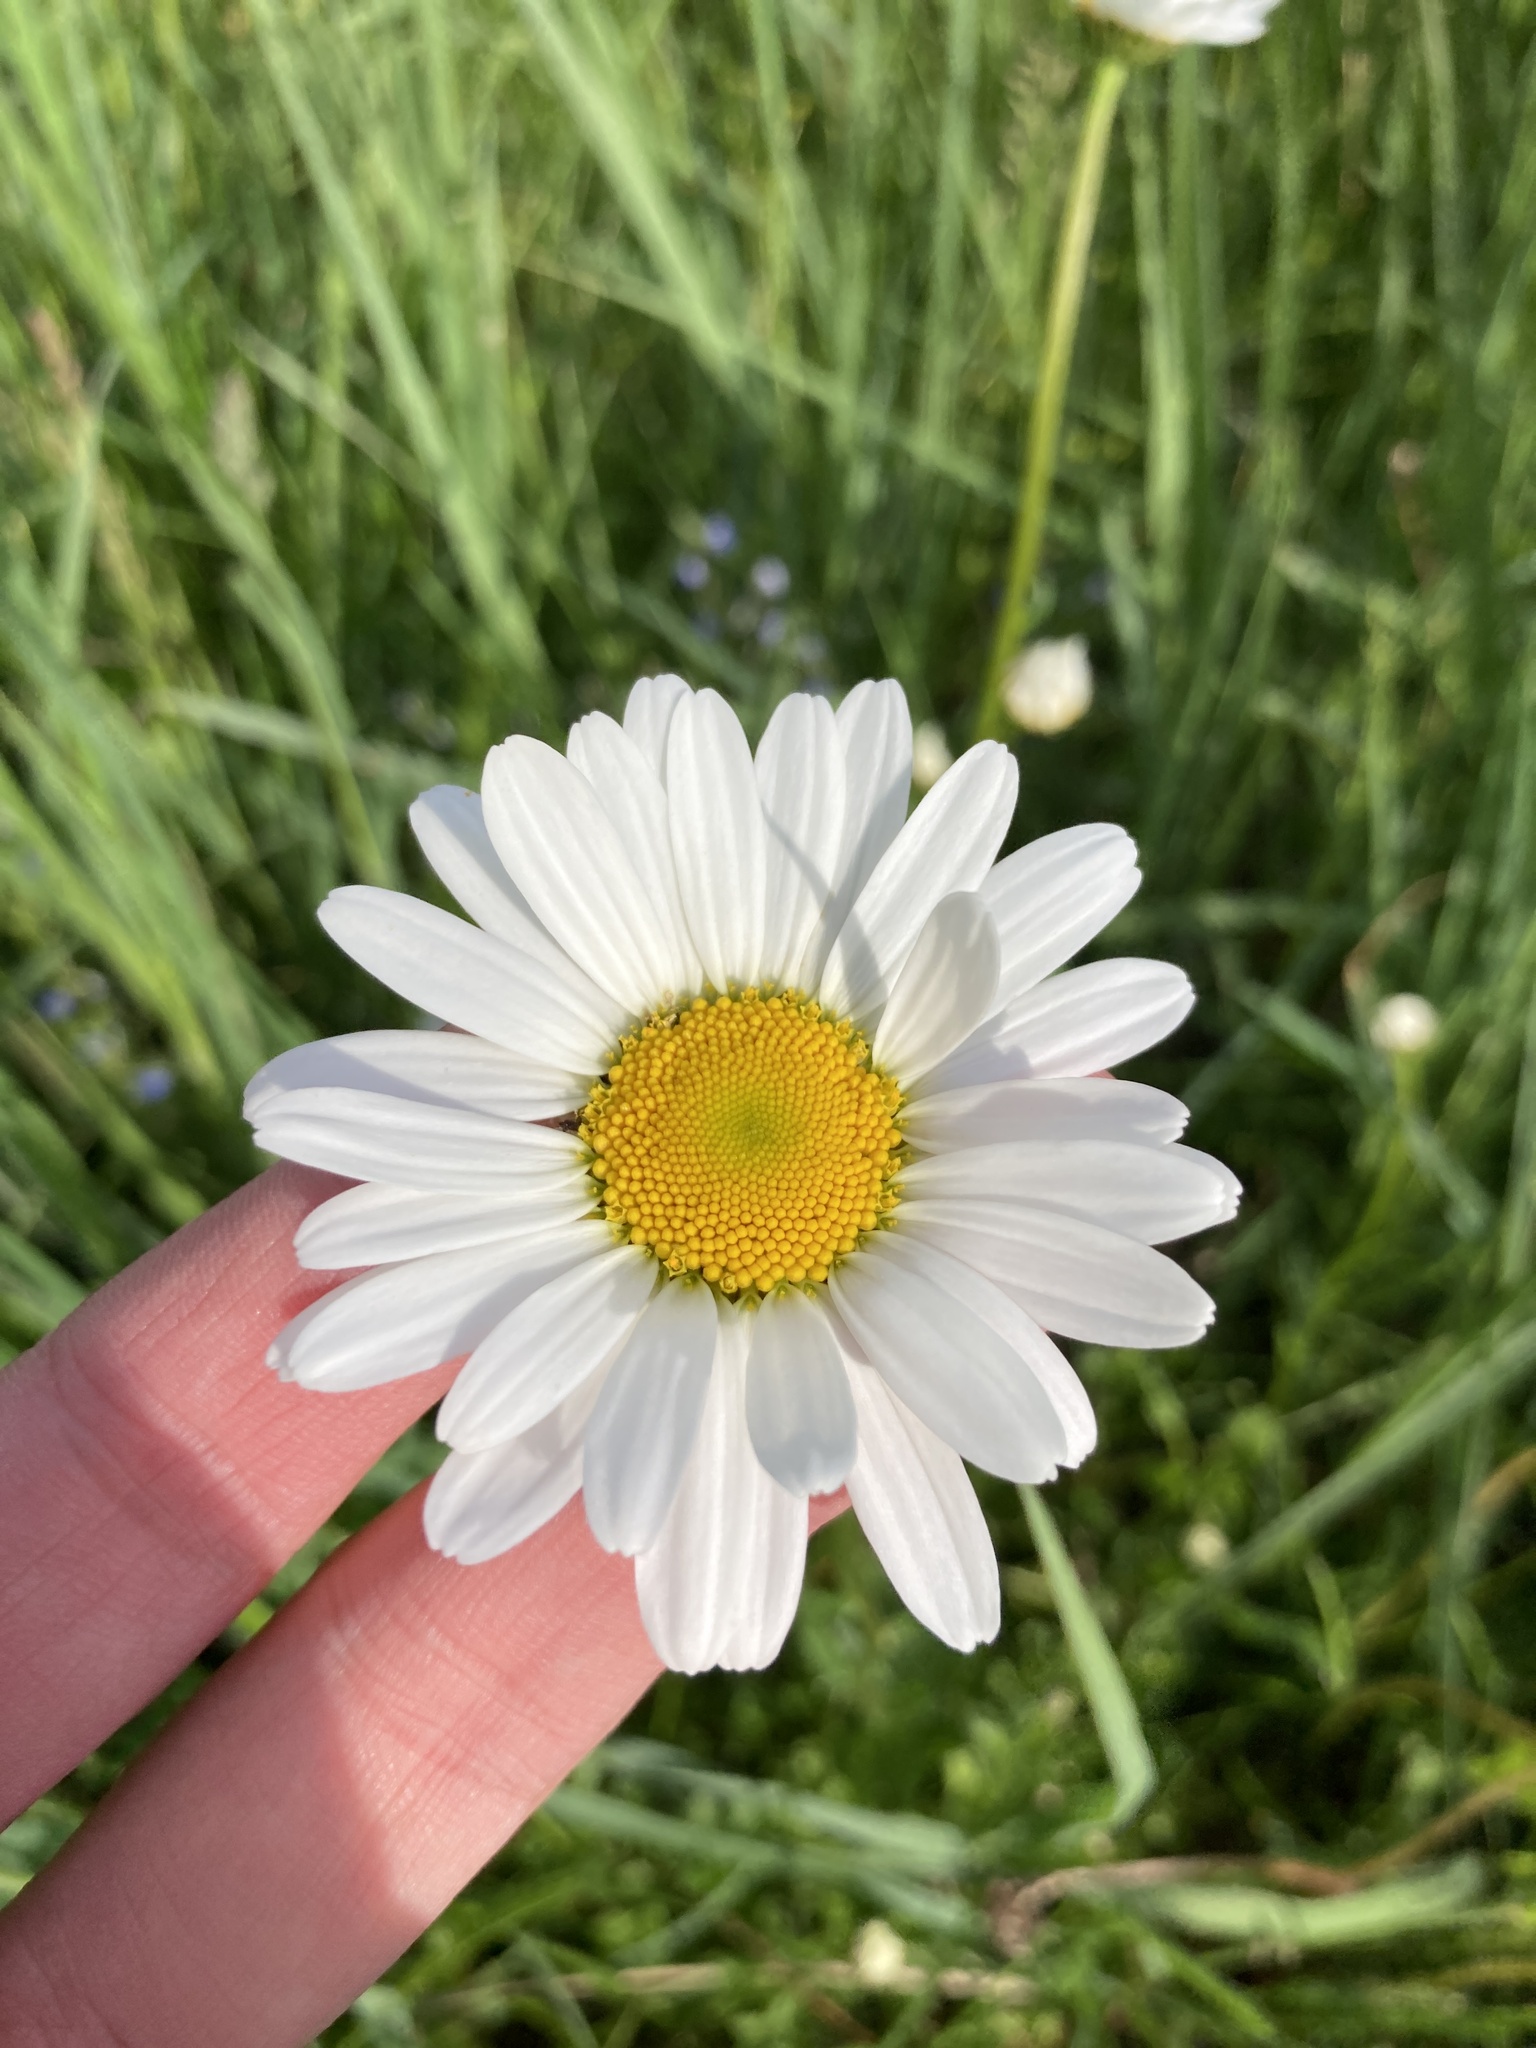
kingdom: Plantae
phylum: Tracheophyta
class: Magnoliopsida
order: Asterales
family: Asteraceae
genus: Leucanthemum
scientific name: Leucanthemum vulgare
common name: Oxeye daisy
